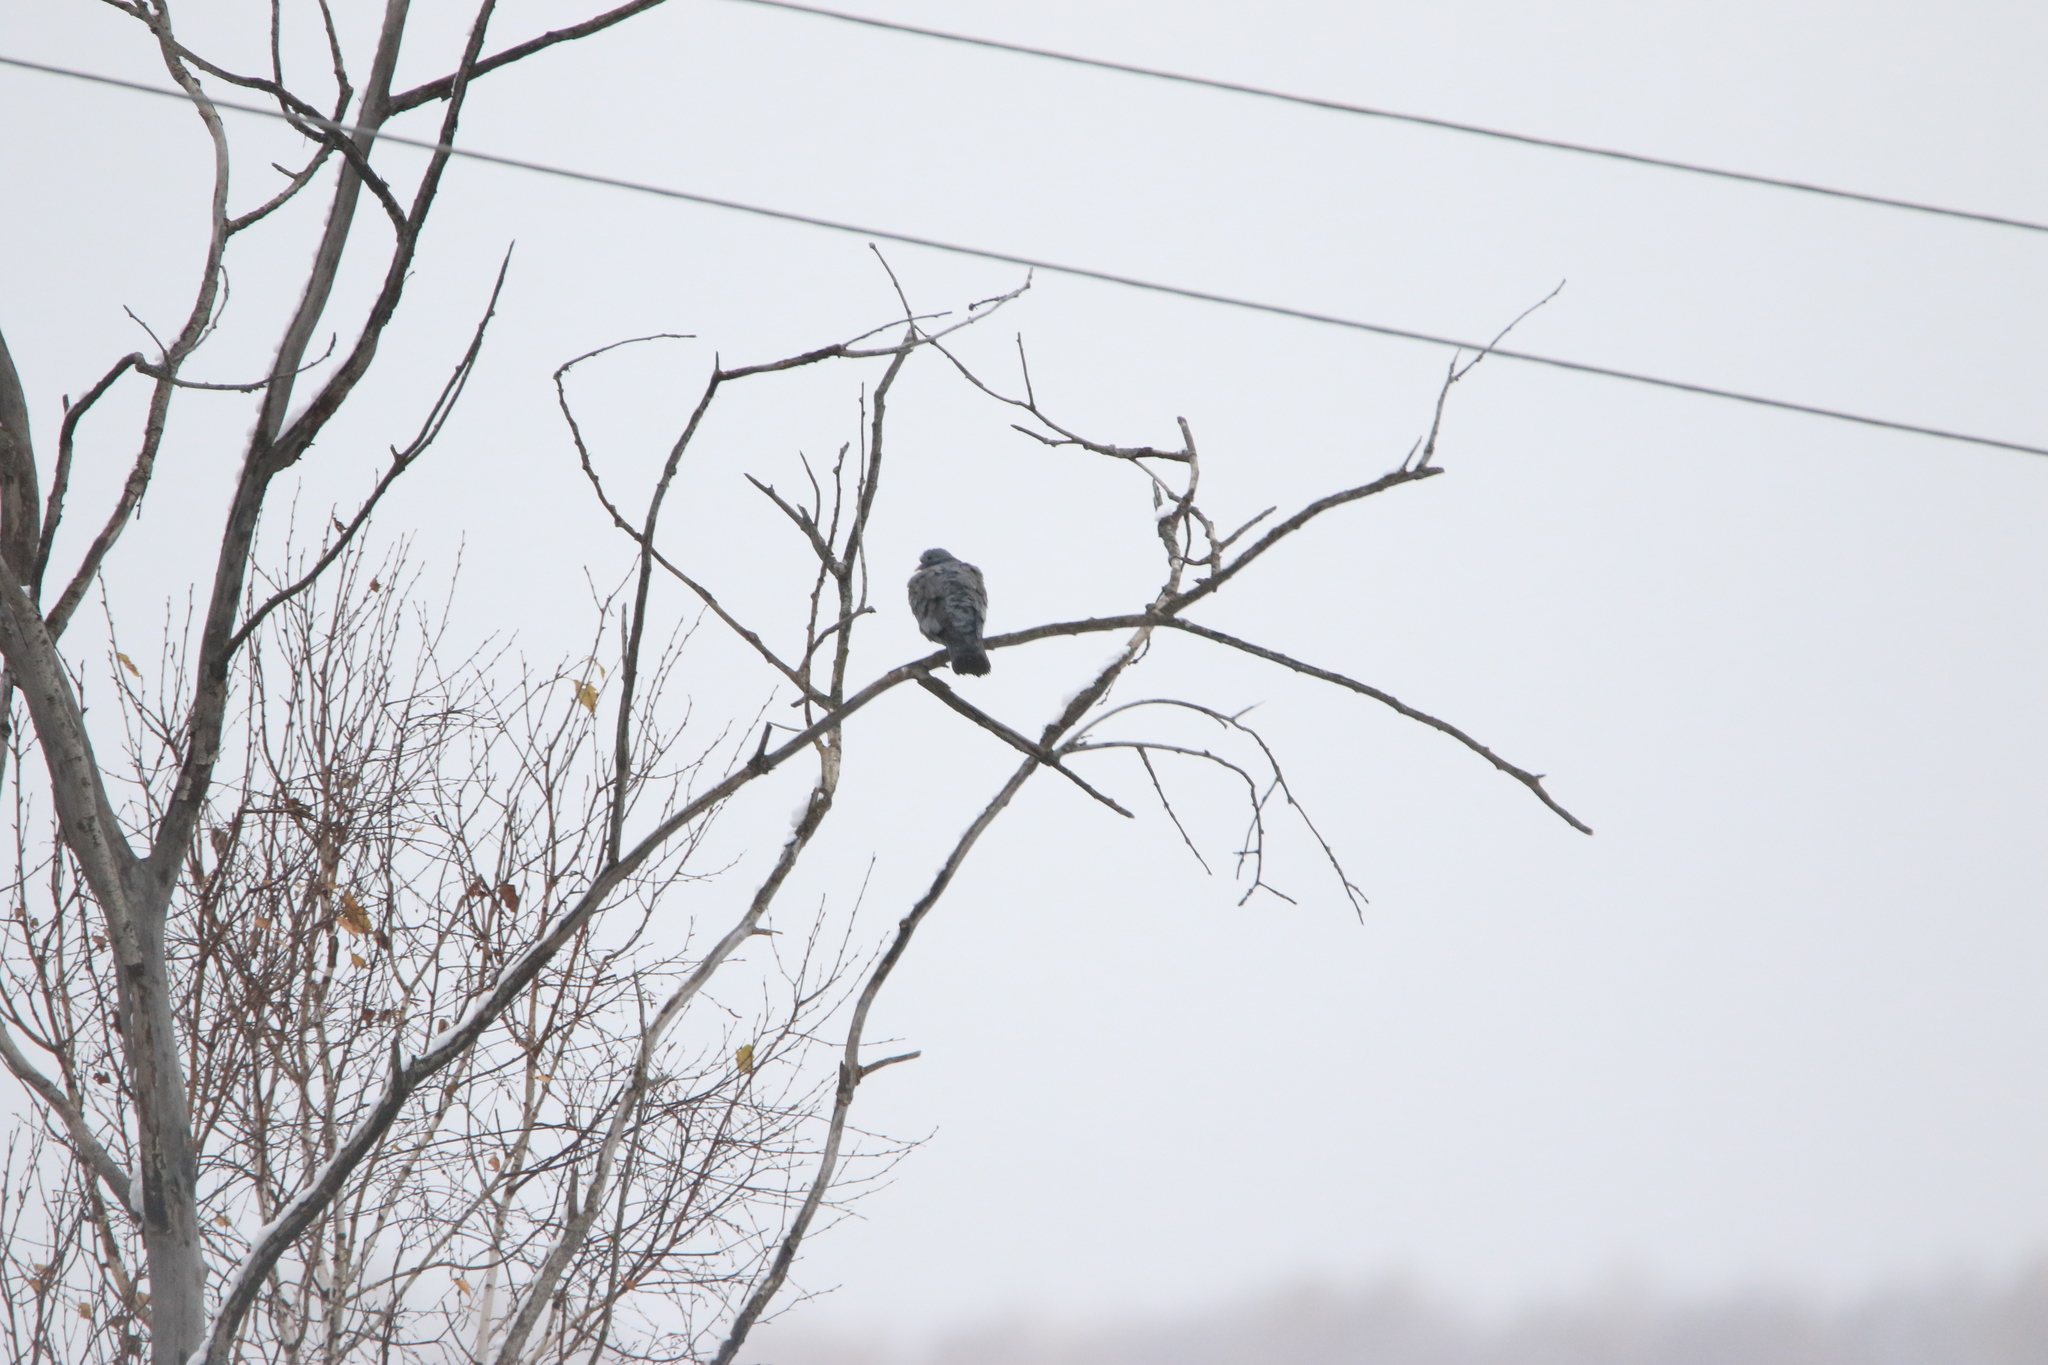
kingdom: Animalia
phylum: Chordata
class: Aves
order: Columbiformes
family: Columbidae
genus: Columba
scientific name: Columba oenas
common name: Stock dove
